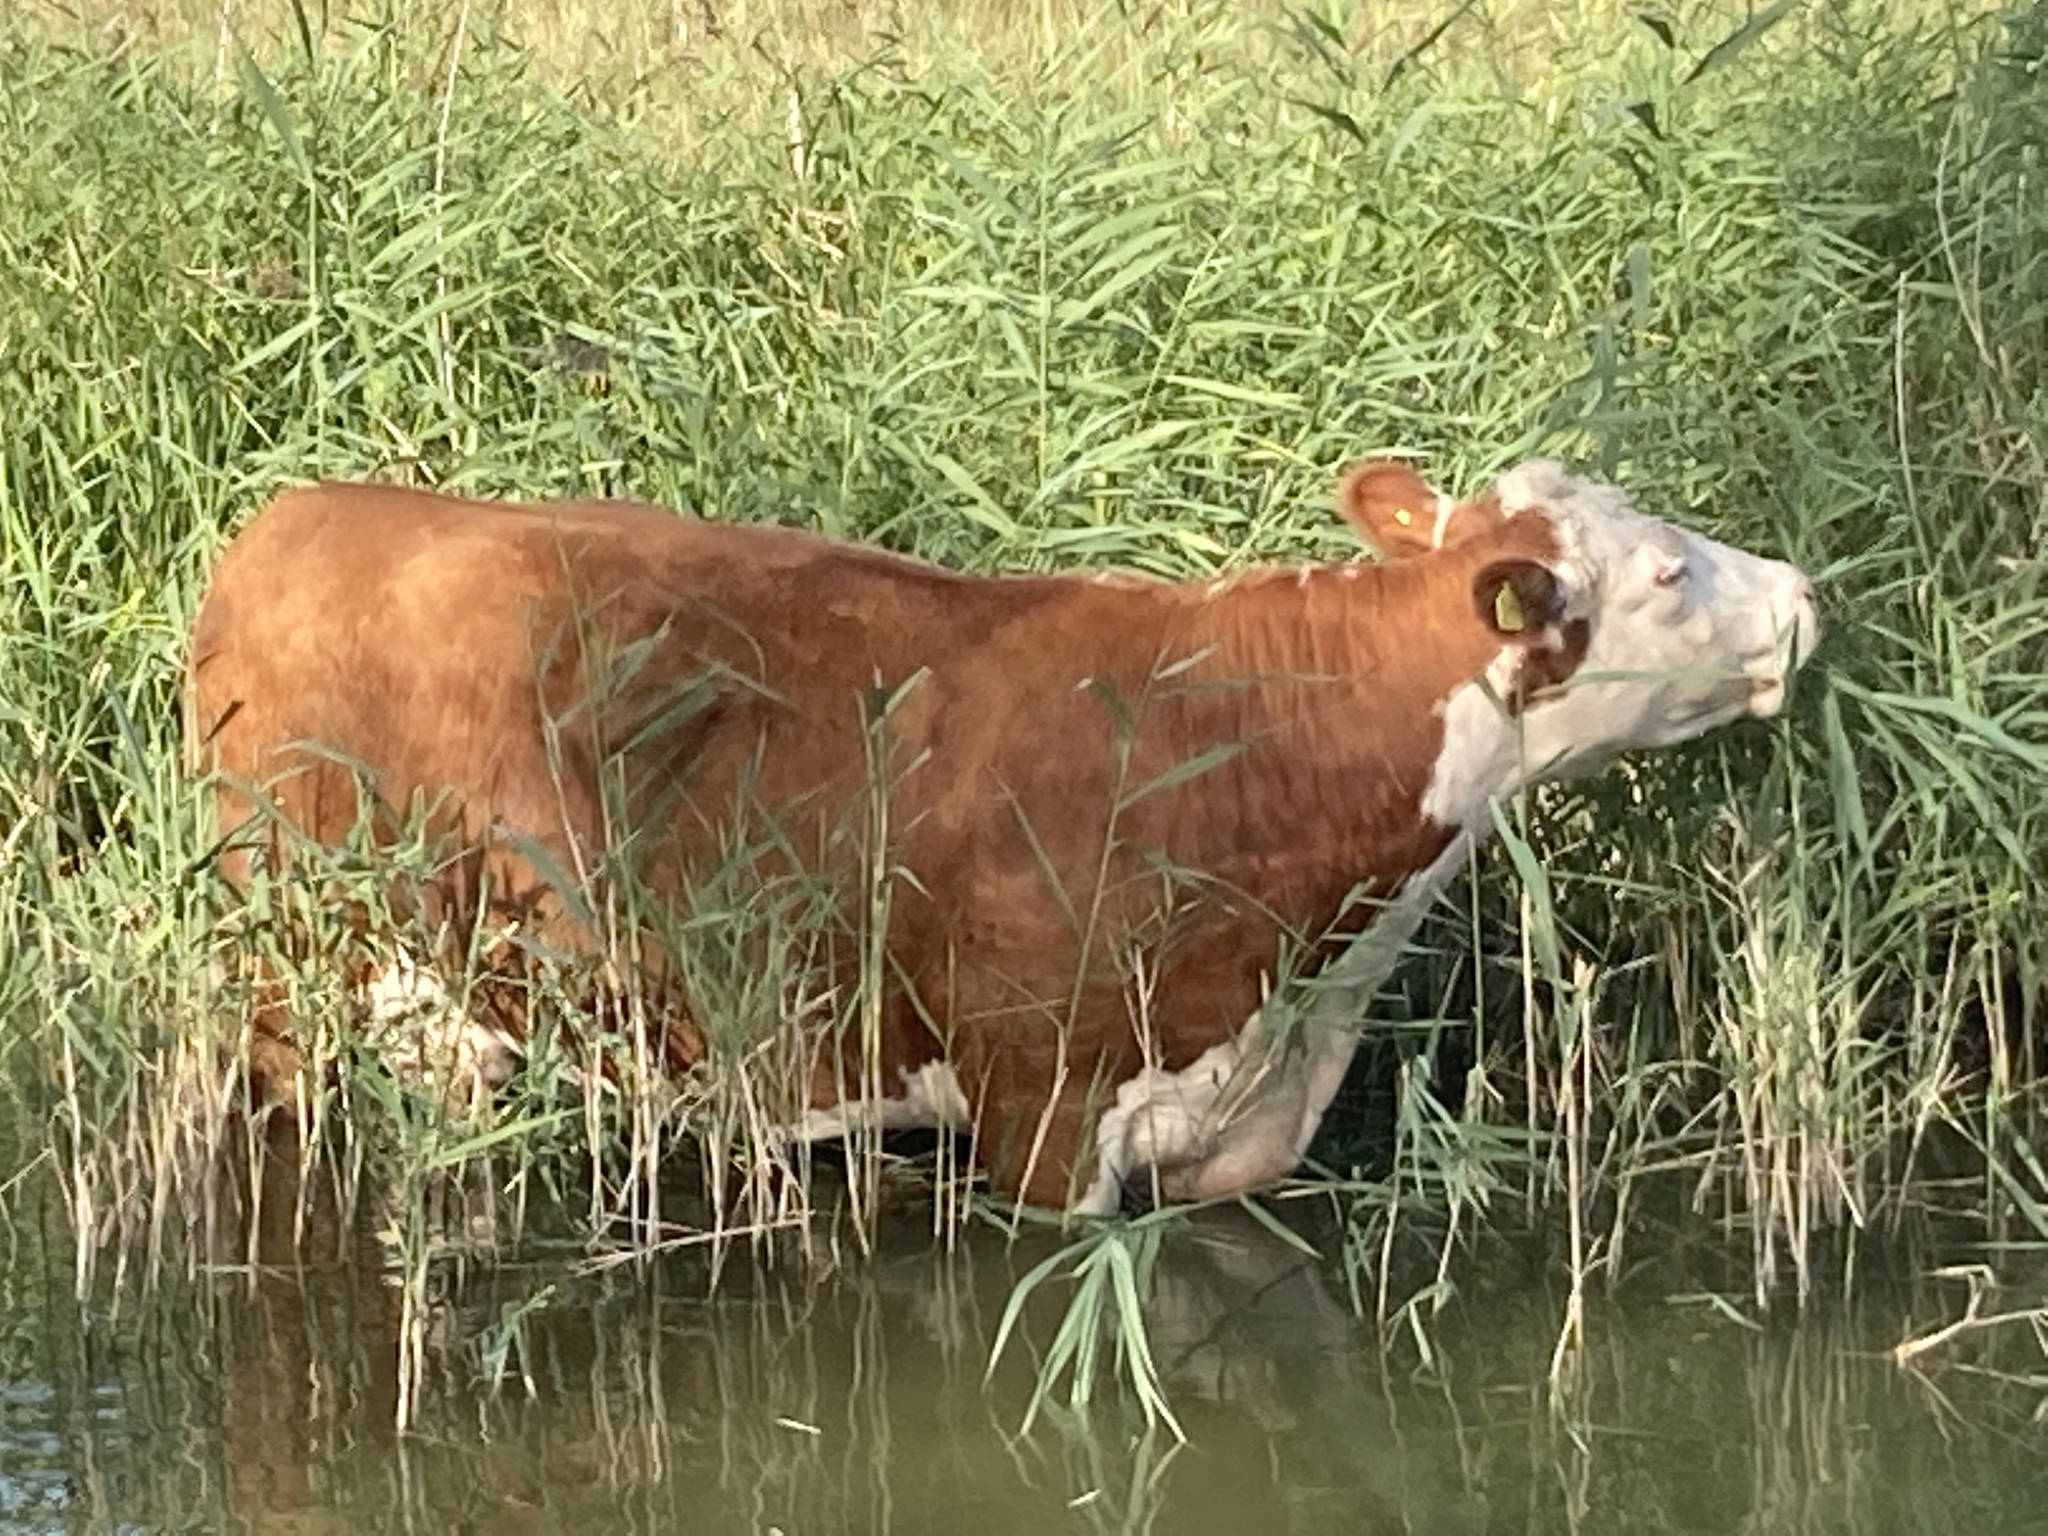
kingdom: Plantae
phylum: Tracheophyta
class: Liliopsida
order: Poales
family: Poaceae
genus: Phragmites
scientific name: Phragmites australis
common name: Common reed
